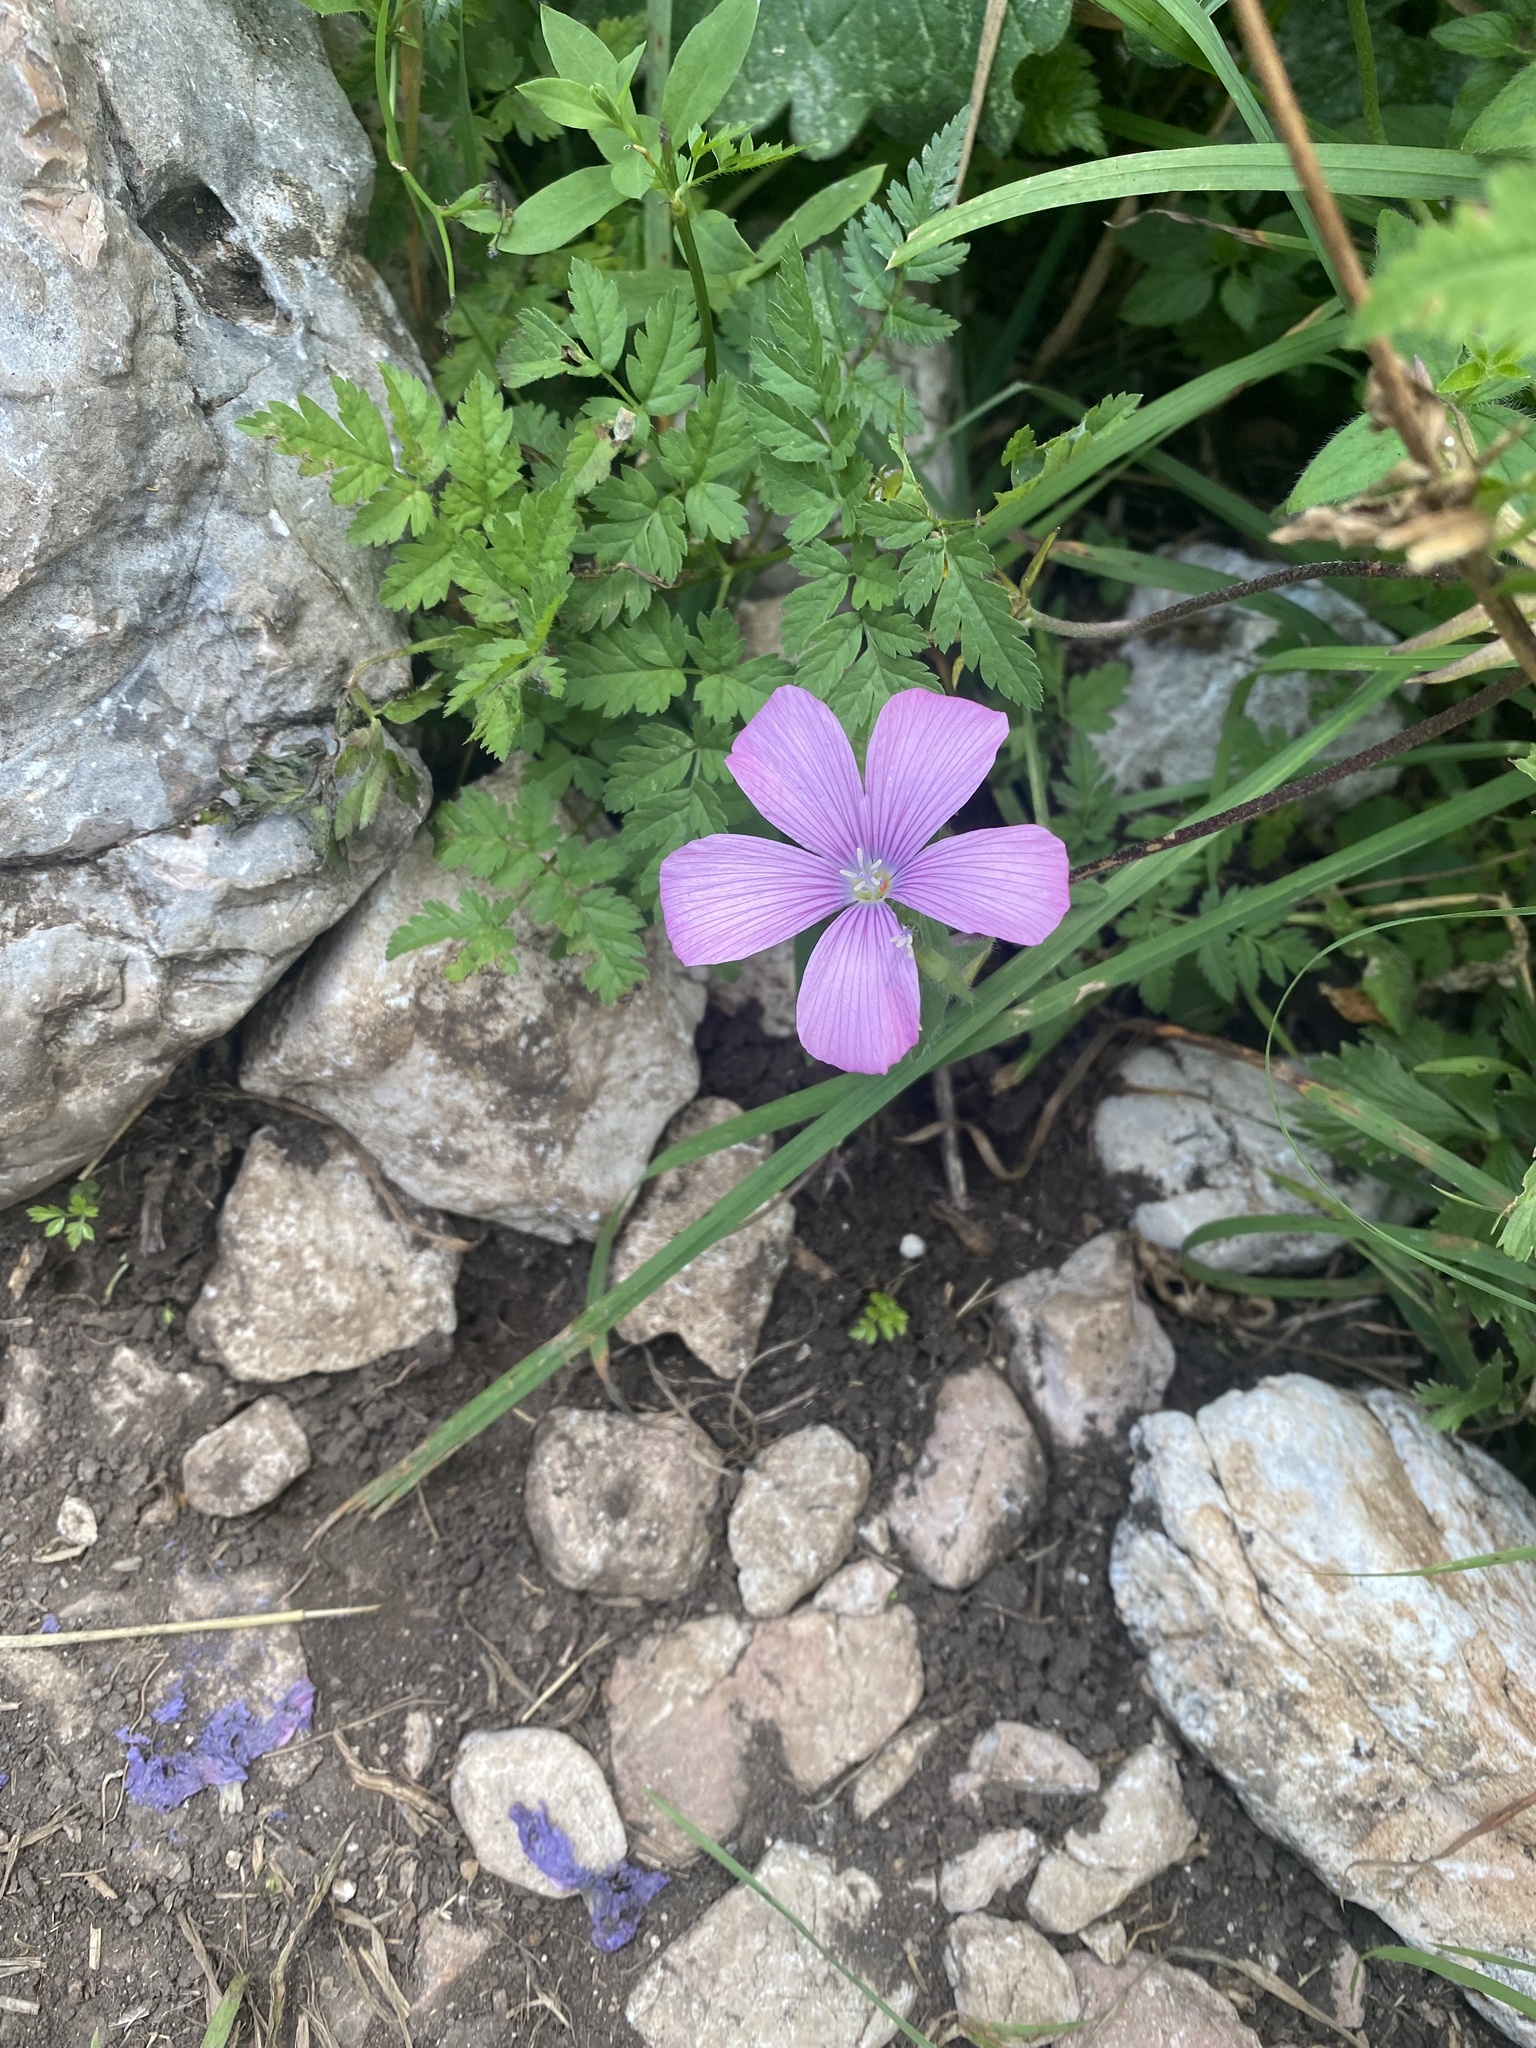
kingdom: Plantae
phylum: Tracheophyta
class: Magnoliopsida
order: Malpighiales
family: Linaceae
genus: Linum
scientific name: Linum hypericifolium
